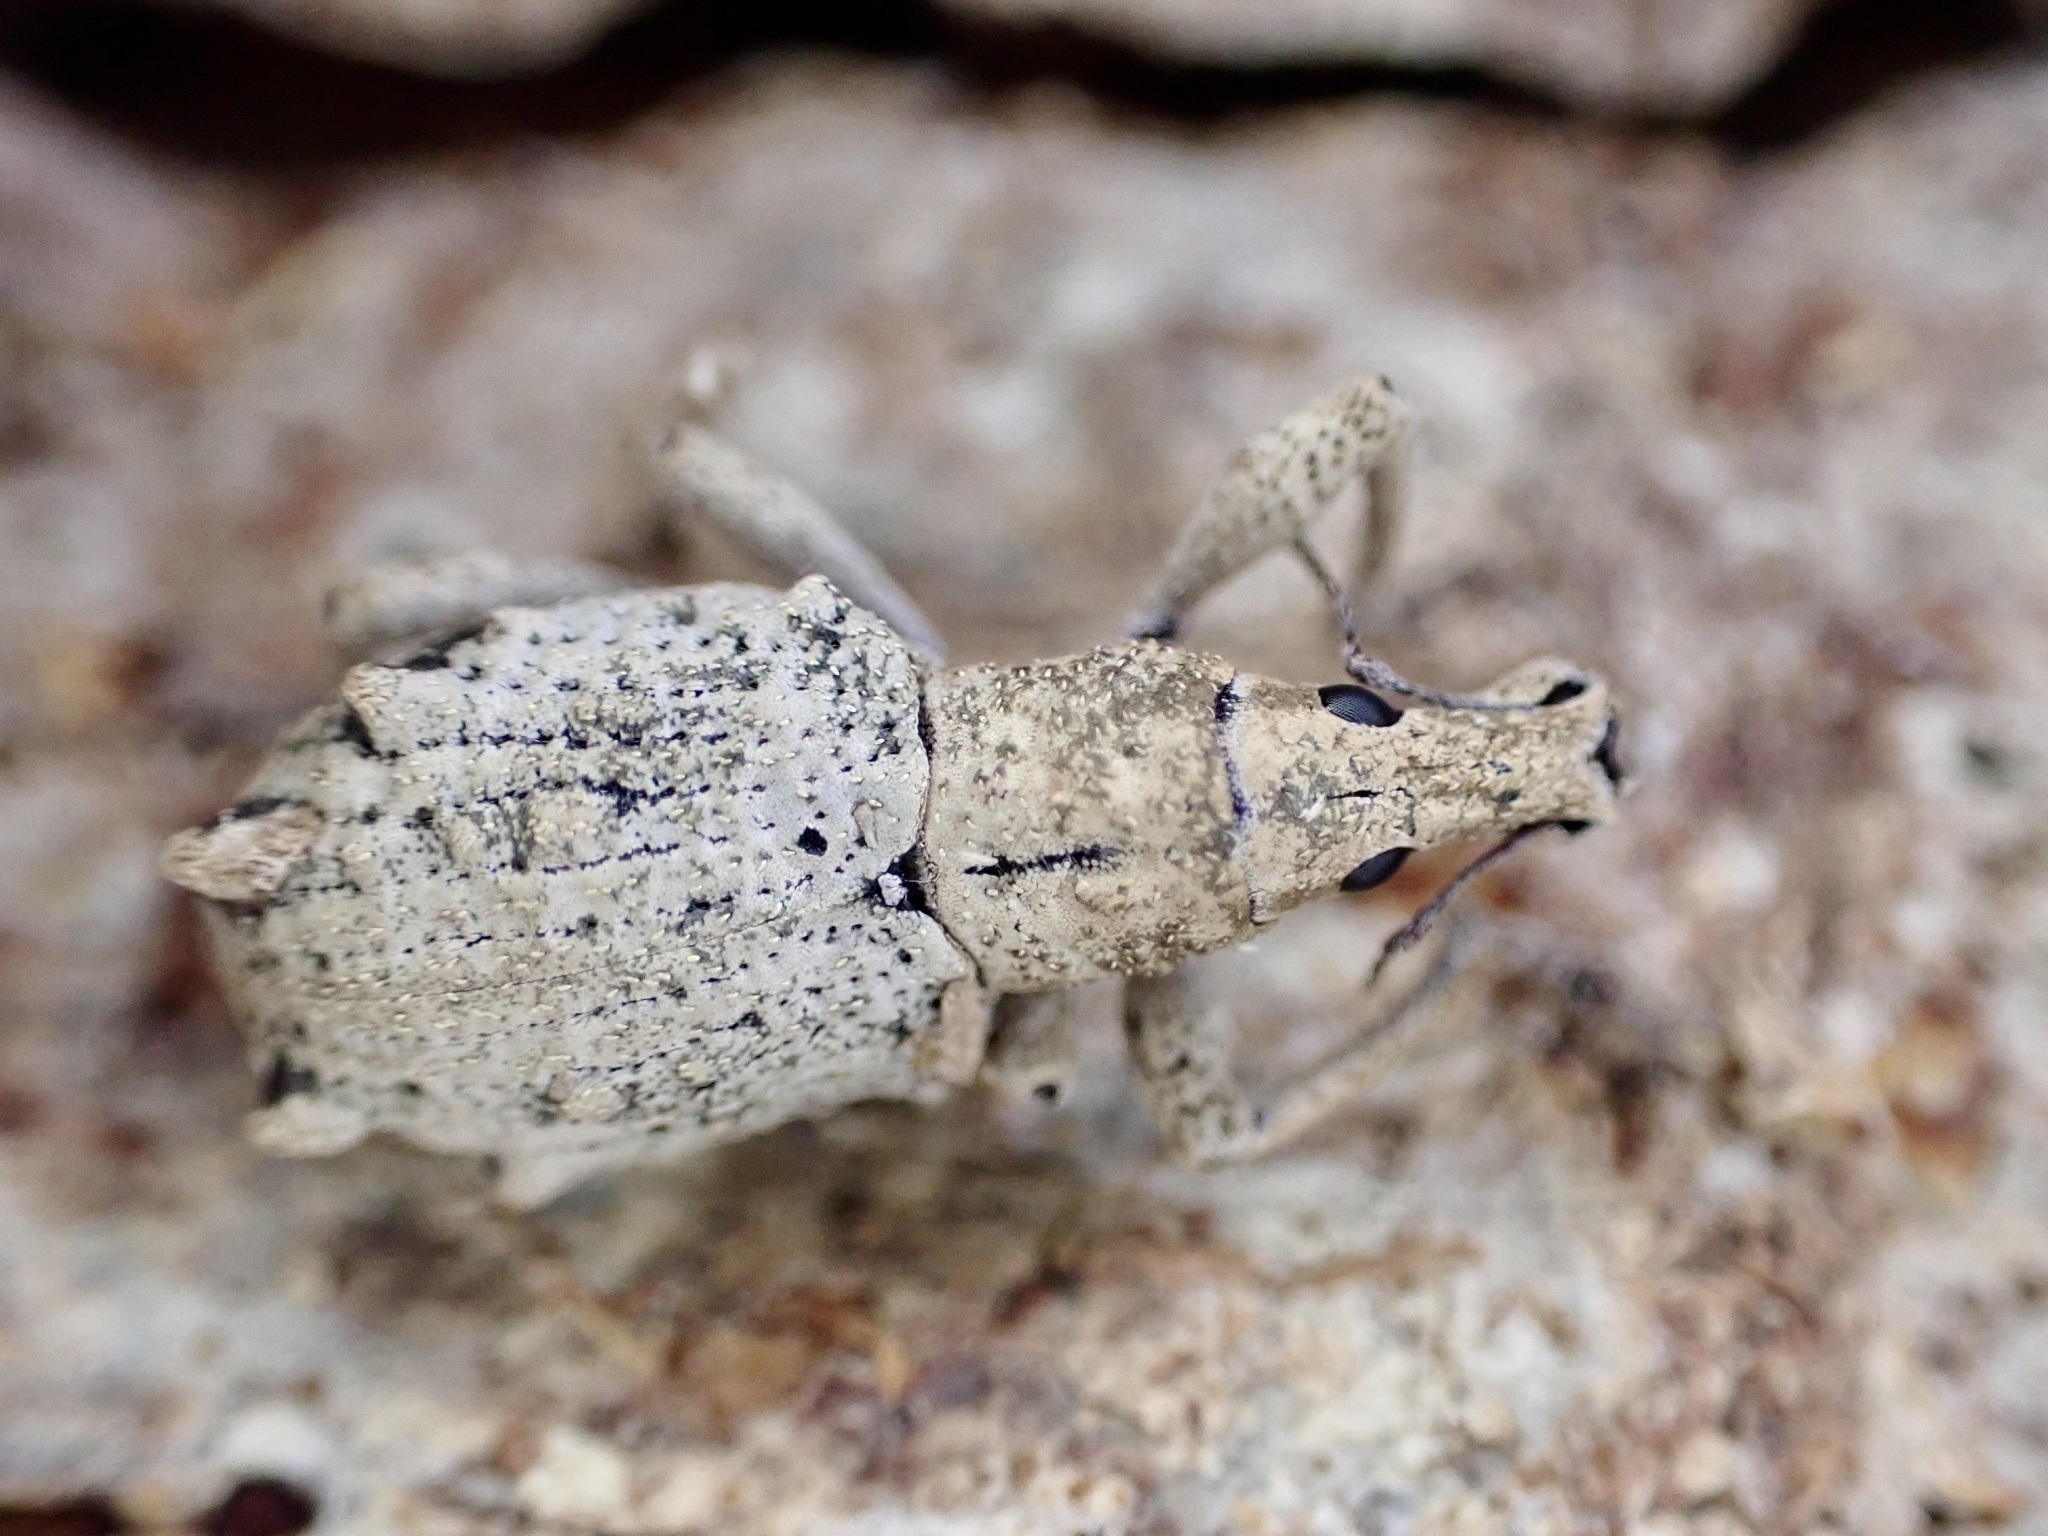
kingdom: Animalia
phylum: Arthropoda
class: Insecta
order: Coleoptera
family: Curculionidae
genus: Eurynotia
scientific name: Eurynotia
